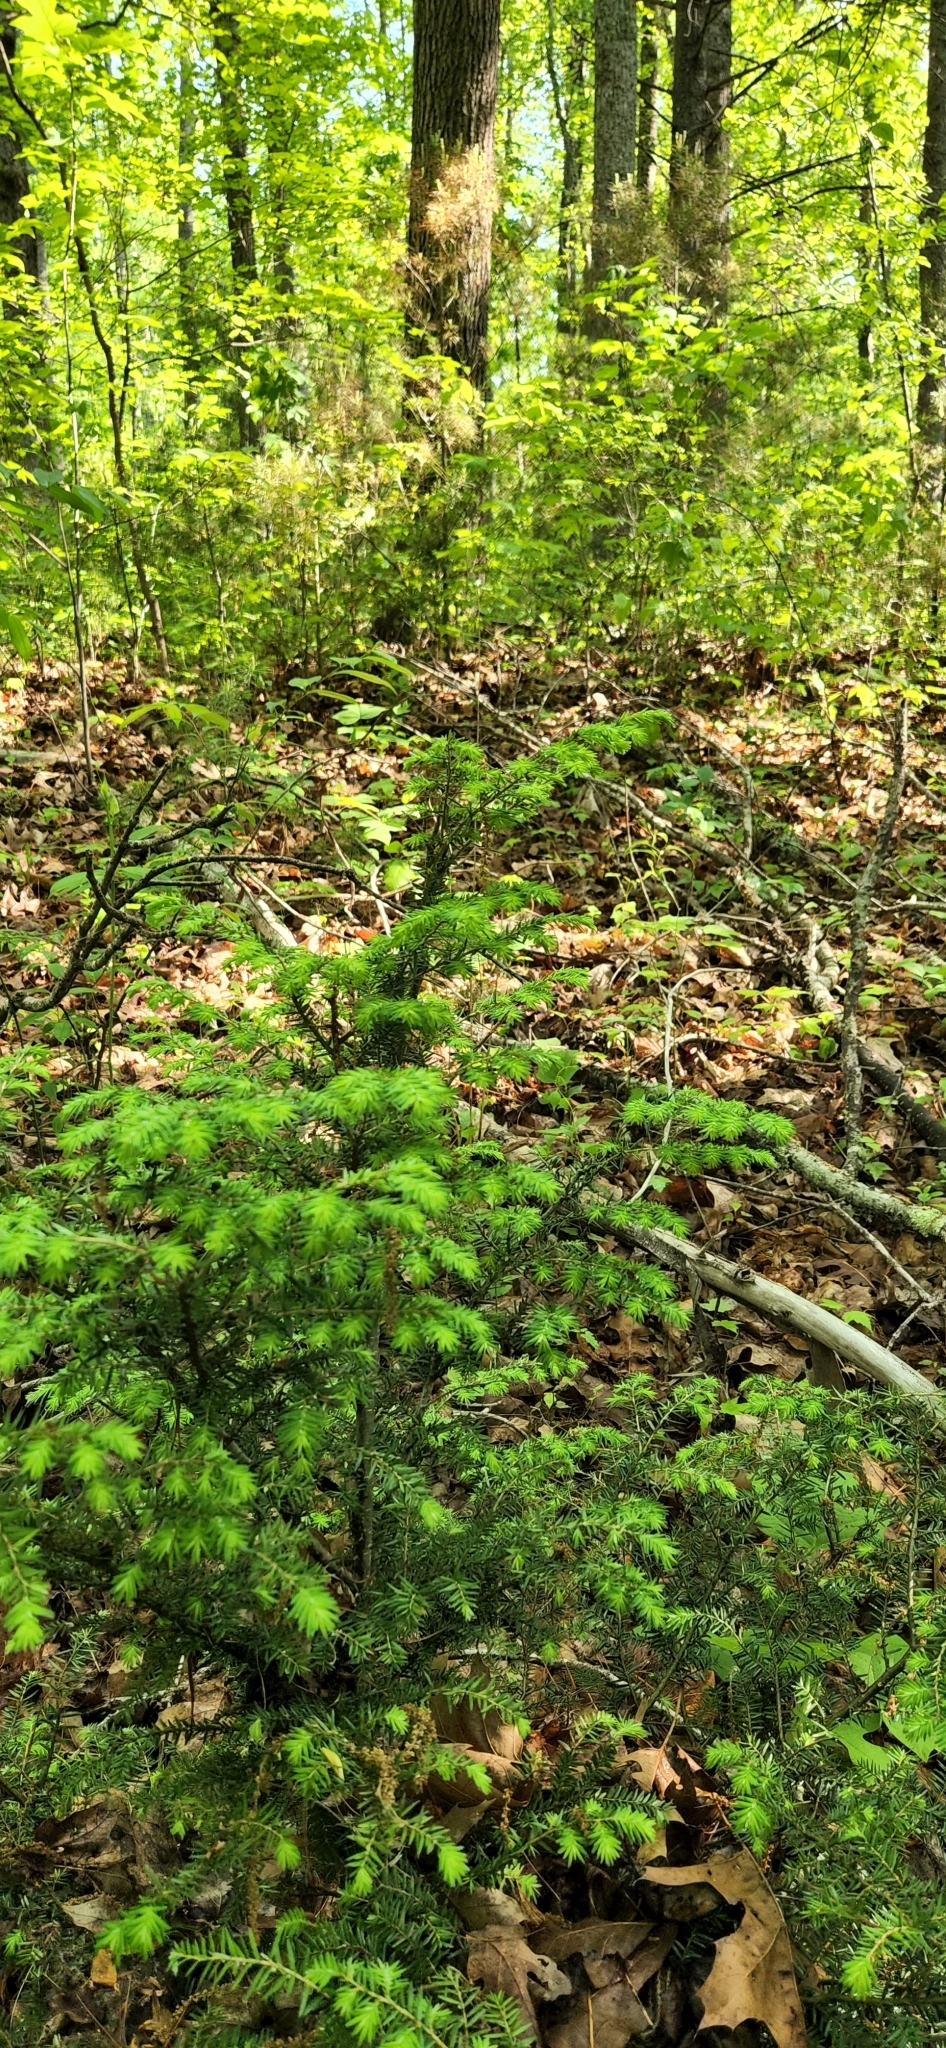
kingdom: Plantae
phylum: Tracheophyta
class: Pinopsida
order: Pinales
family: Pinaceae
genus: Tsuga
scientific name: Tsuga canadensis
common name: Eastern hemlock
